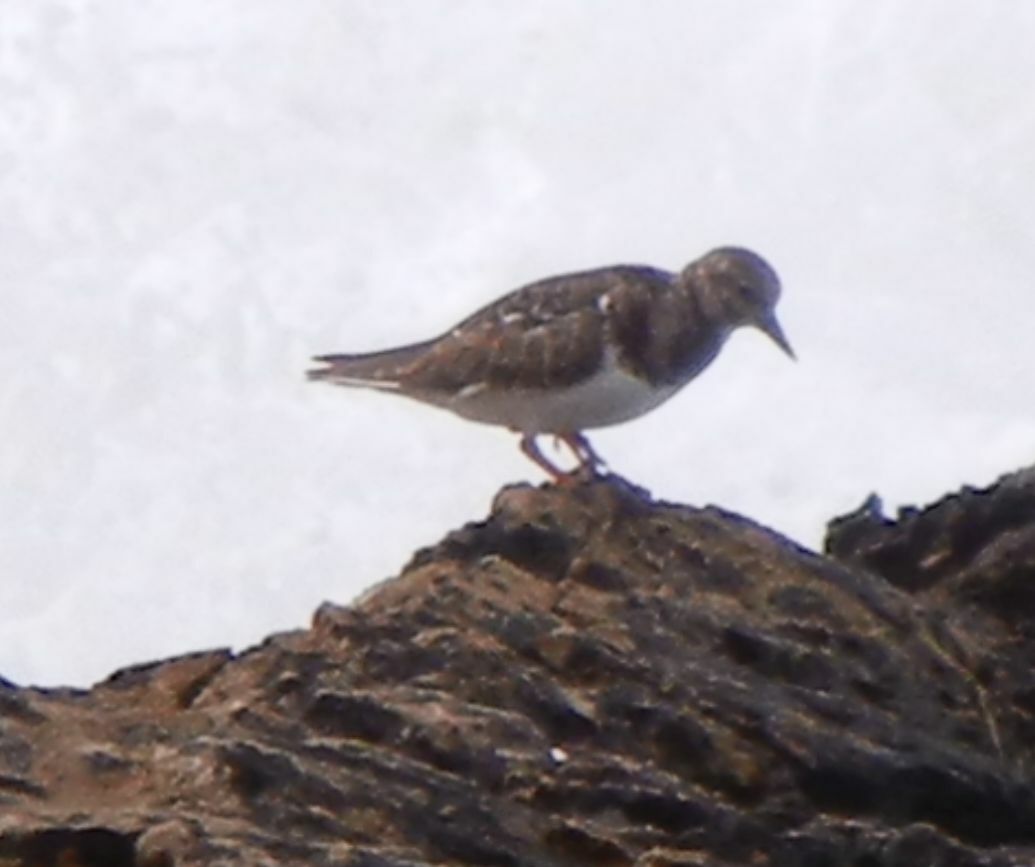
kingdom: Animalia
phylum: Chordata
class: Aves
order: Charadriiformes
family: Scolopacidae
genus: Arenaria
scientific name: Arenaria interpres
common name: Ruddy turnstone
